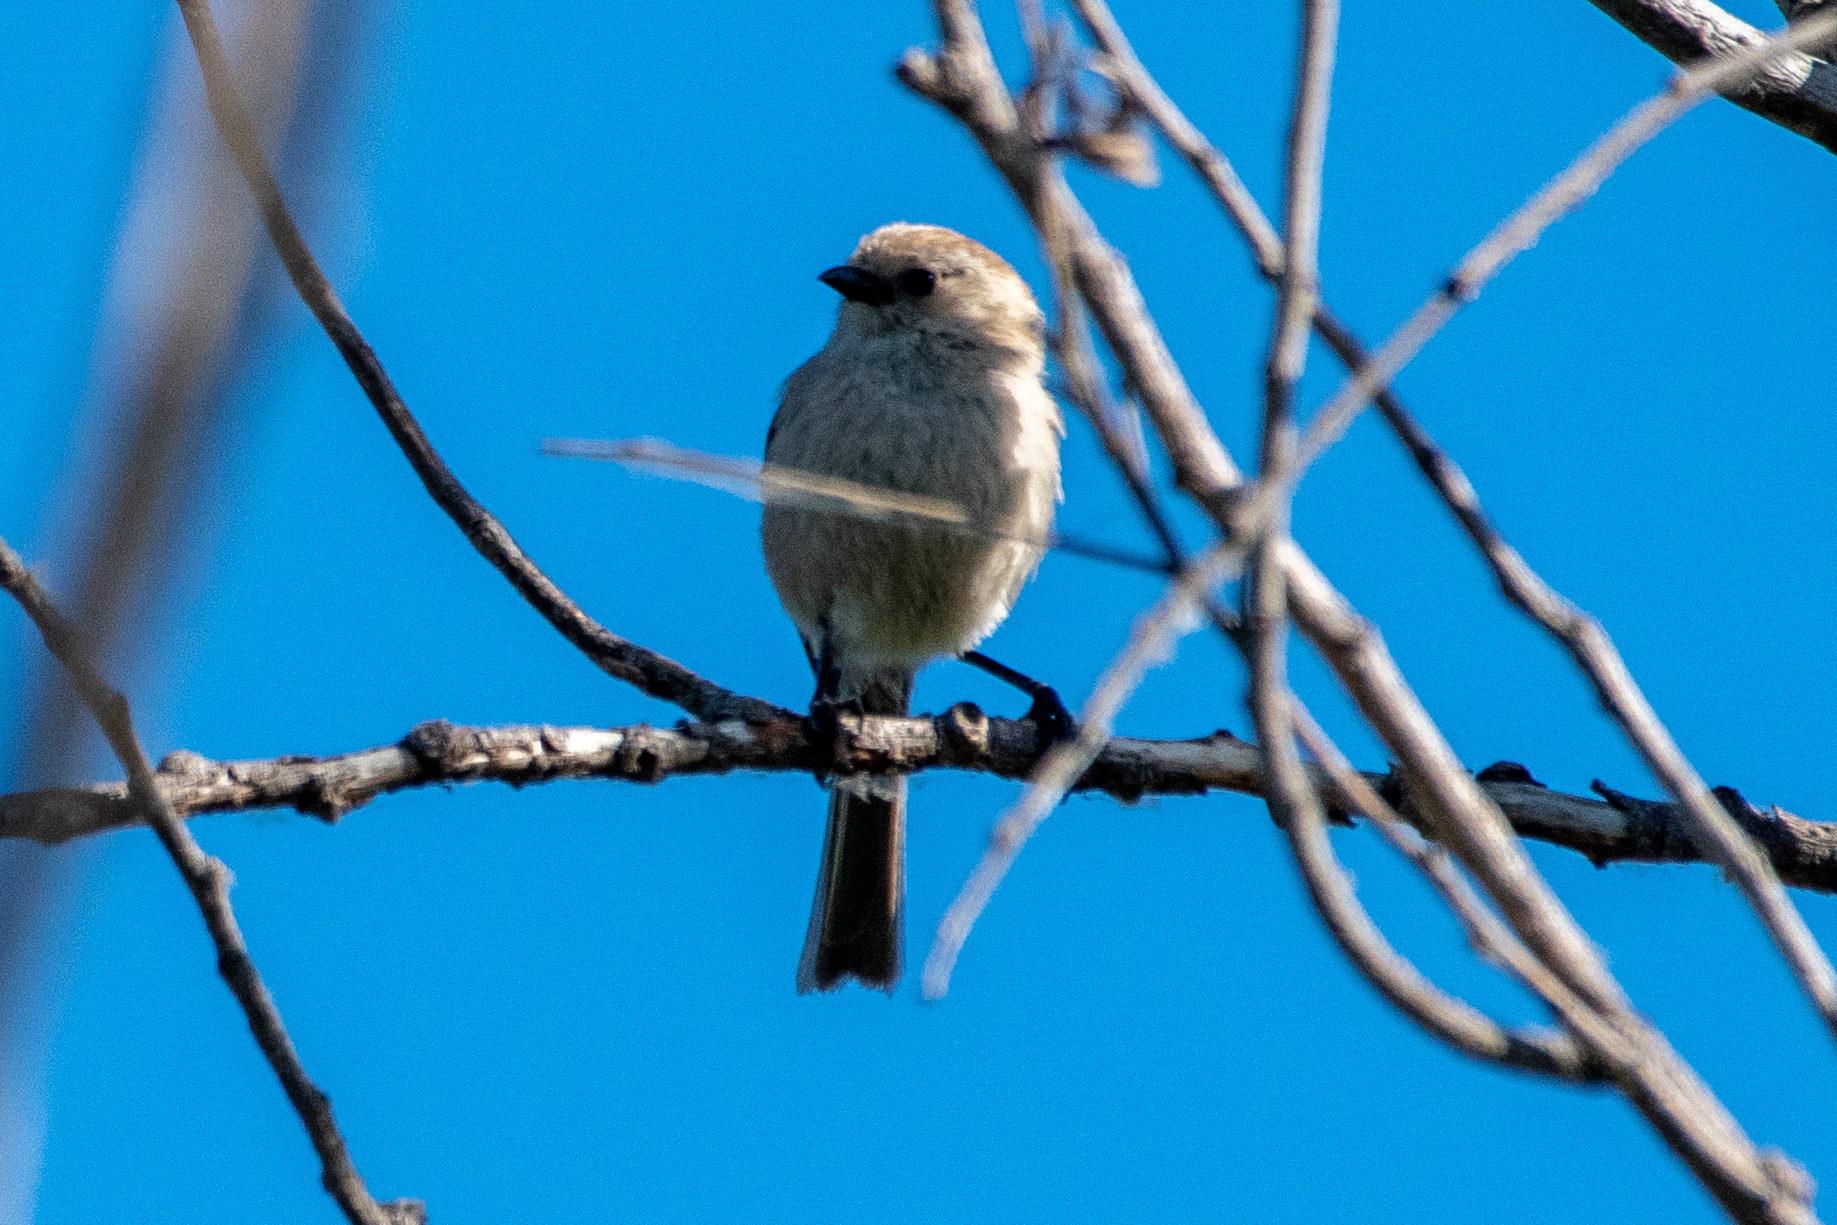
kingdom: Animalia
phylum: Chordata
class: Aves
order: Passeriformes
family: Aegithalidae
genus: Psaltriparus
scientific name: Psaltriparus minimus
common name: American bushtit
